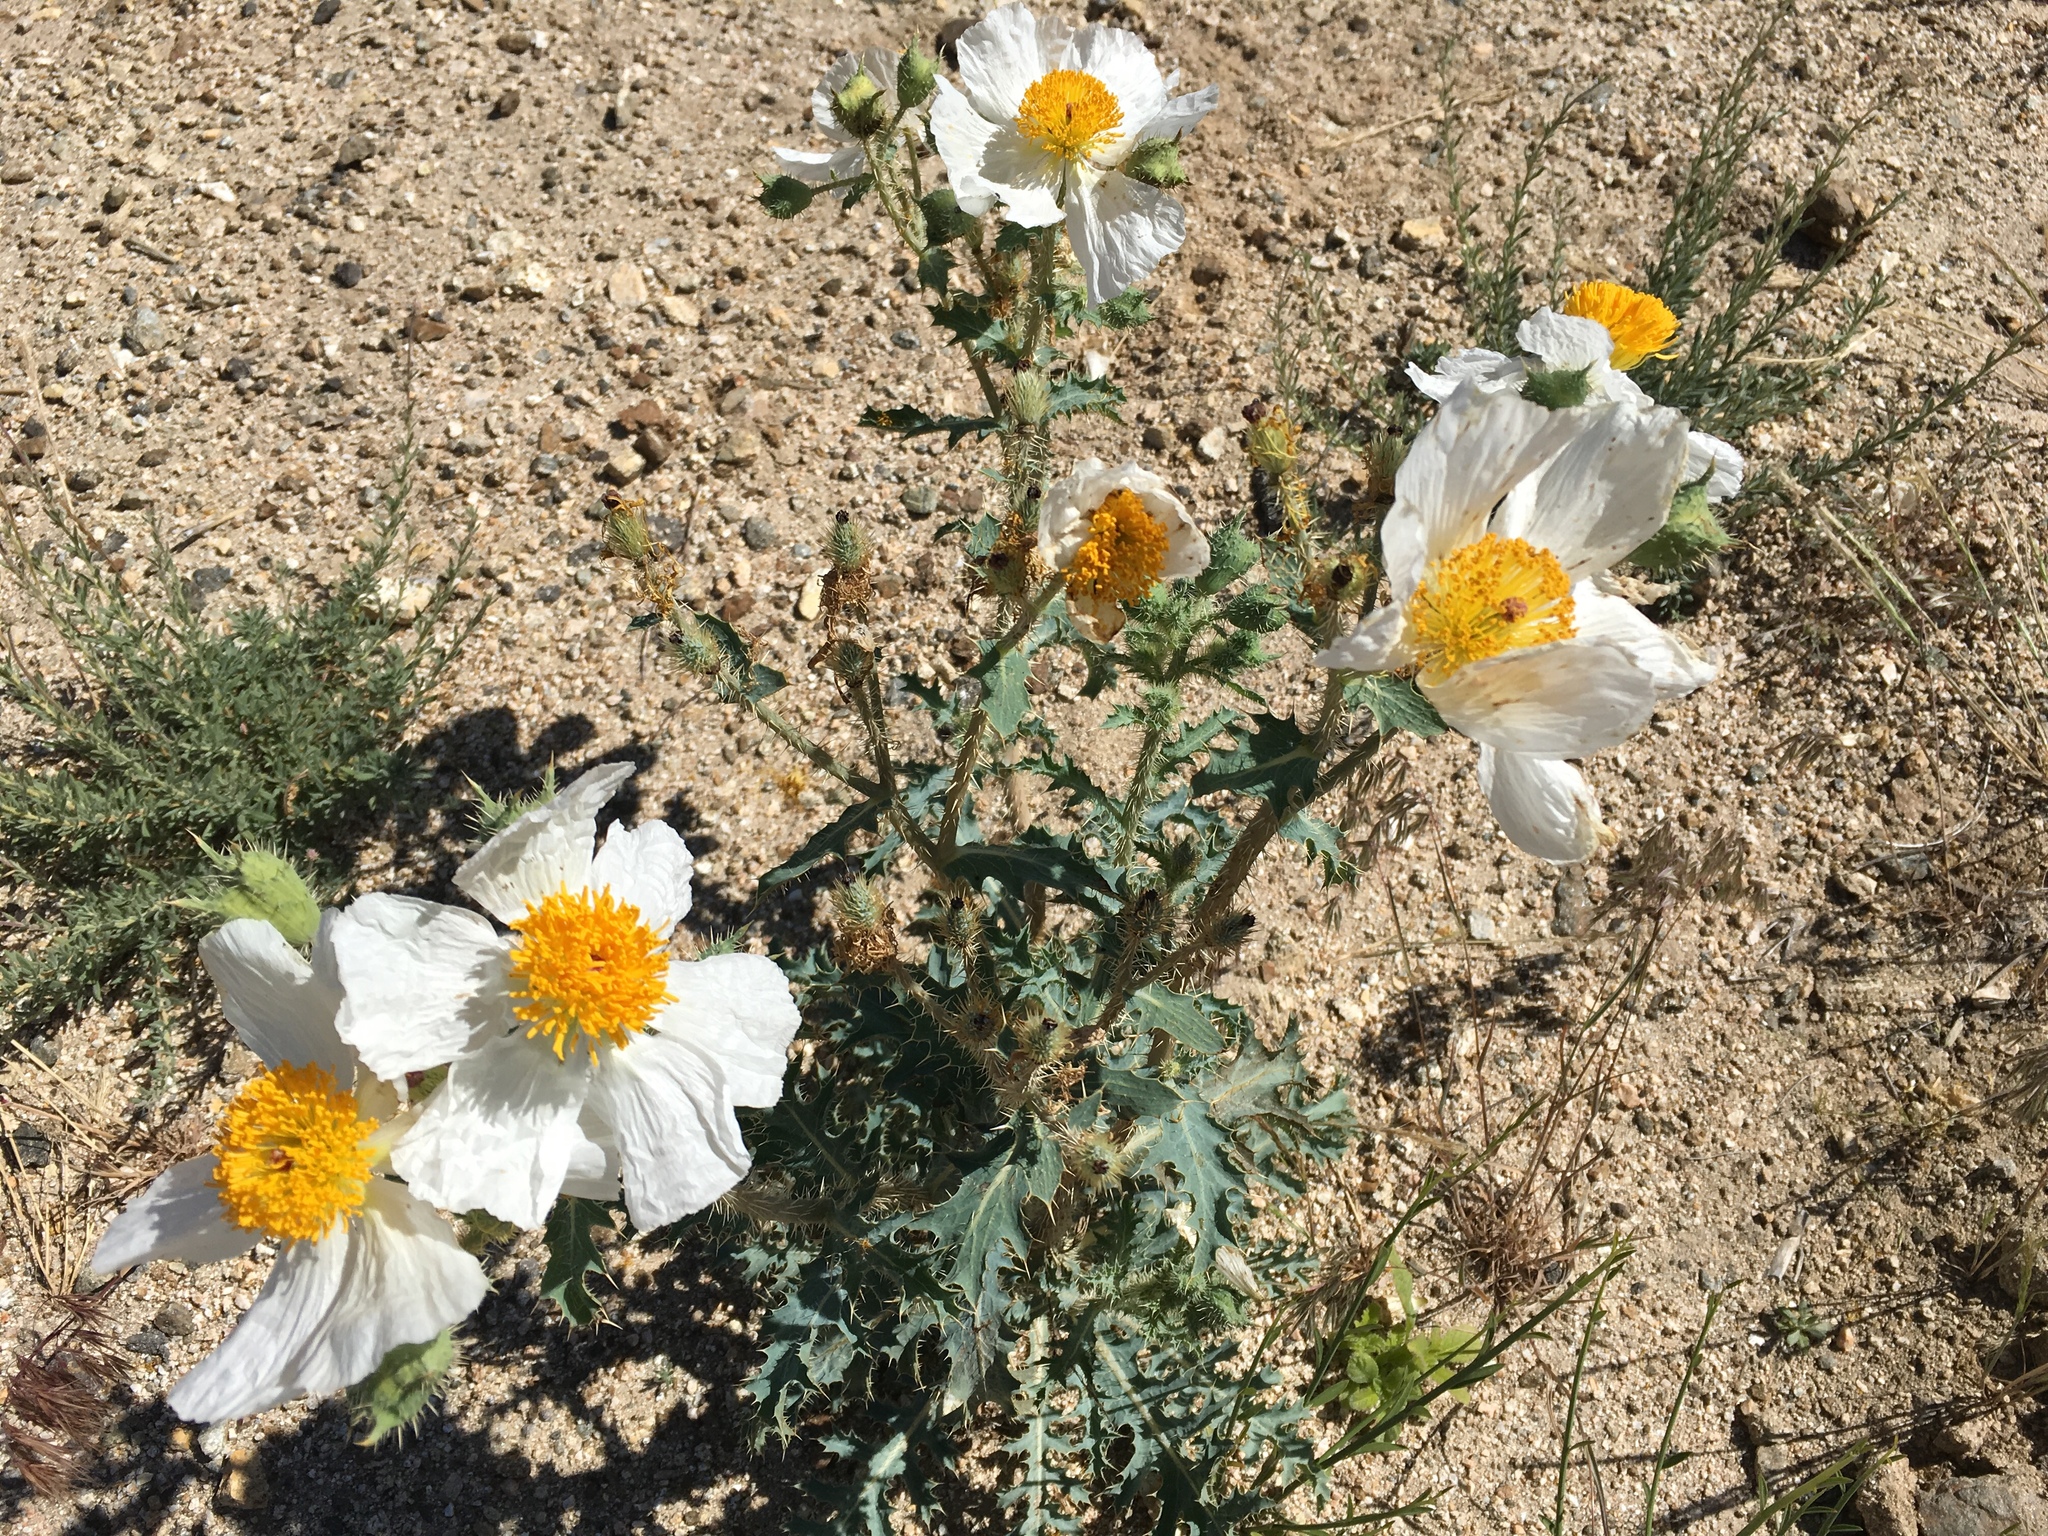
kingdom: Plantae
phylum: Tracheophyta
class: Magnoliopsida
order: Ranunculales
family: Papaveraceae
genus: Argemone
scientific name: Argemone munita
